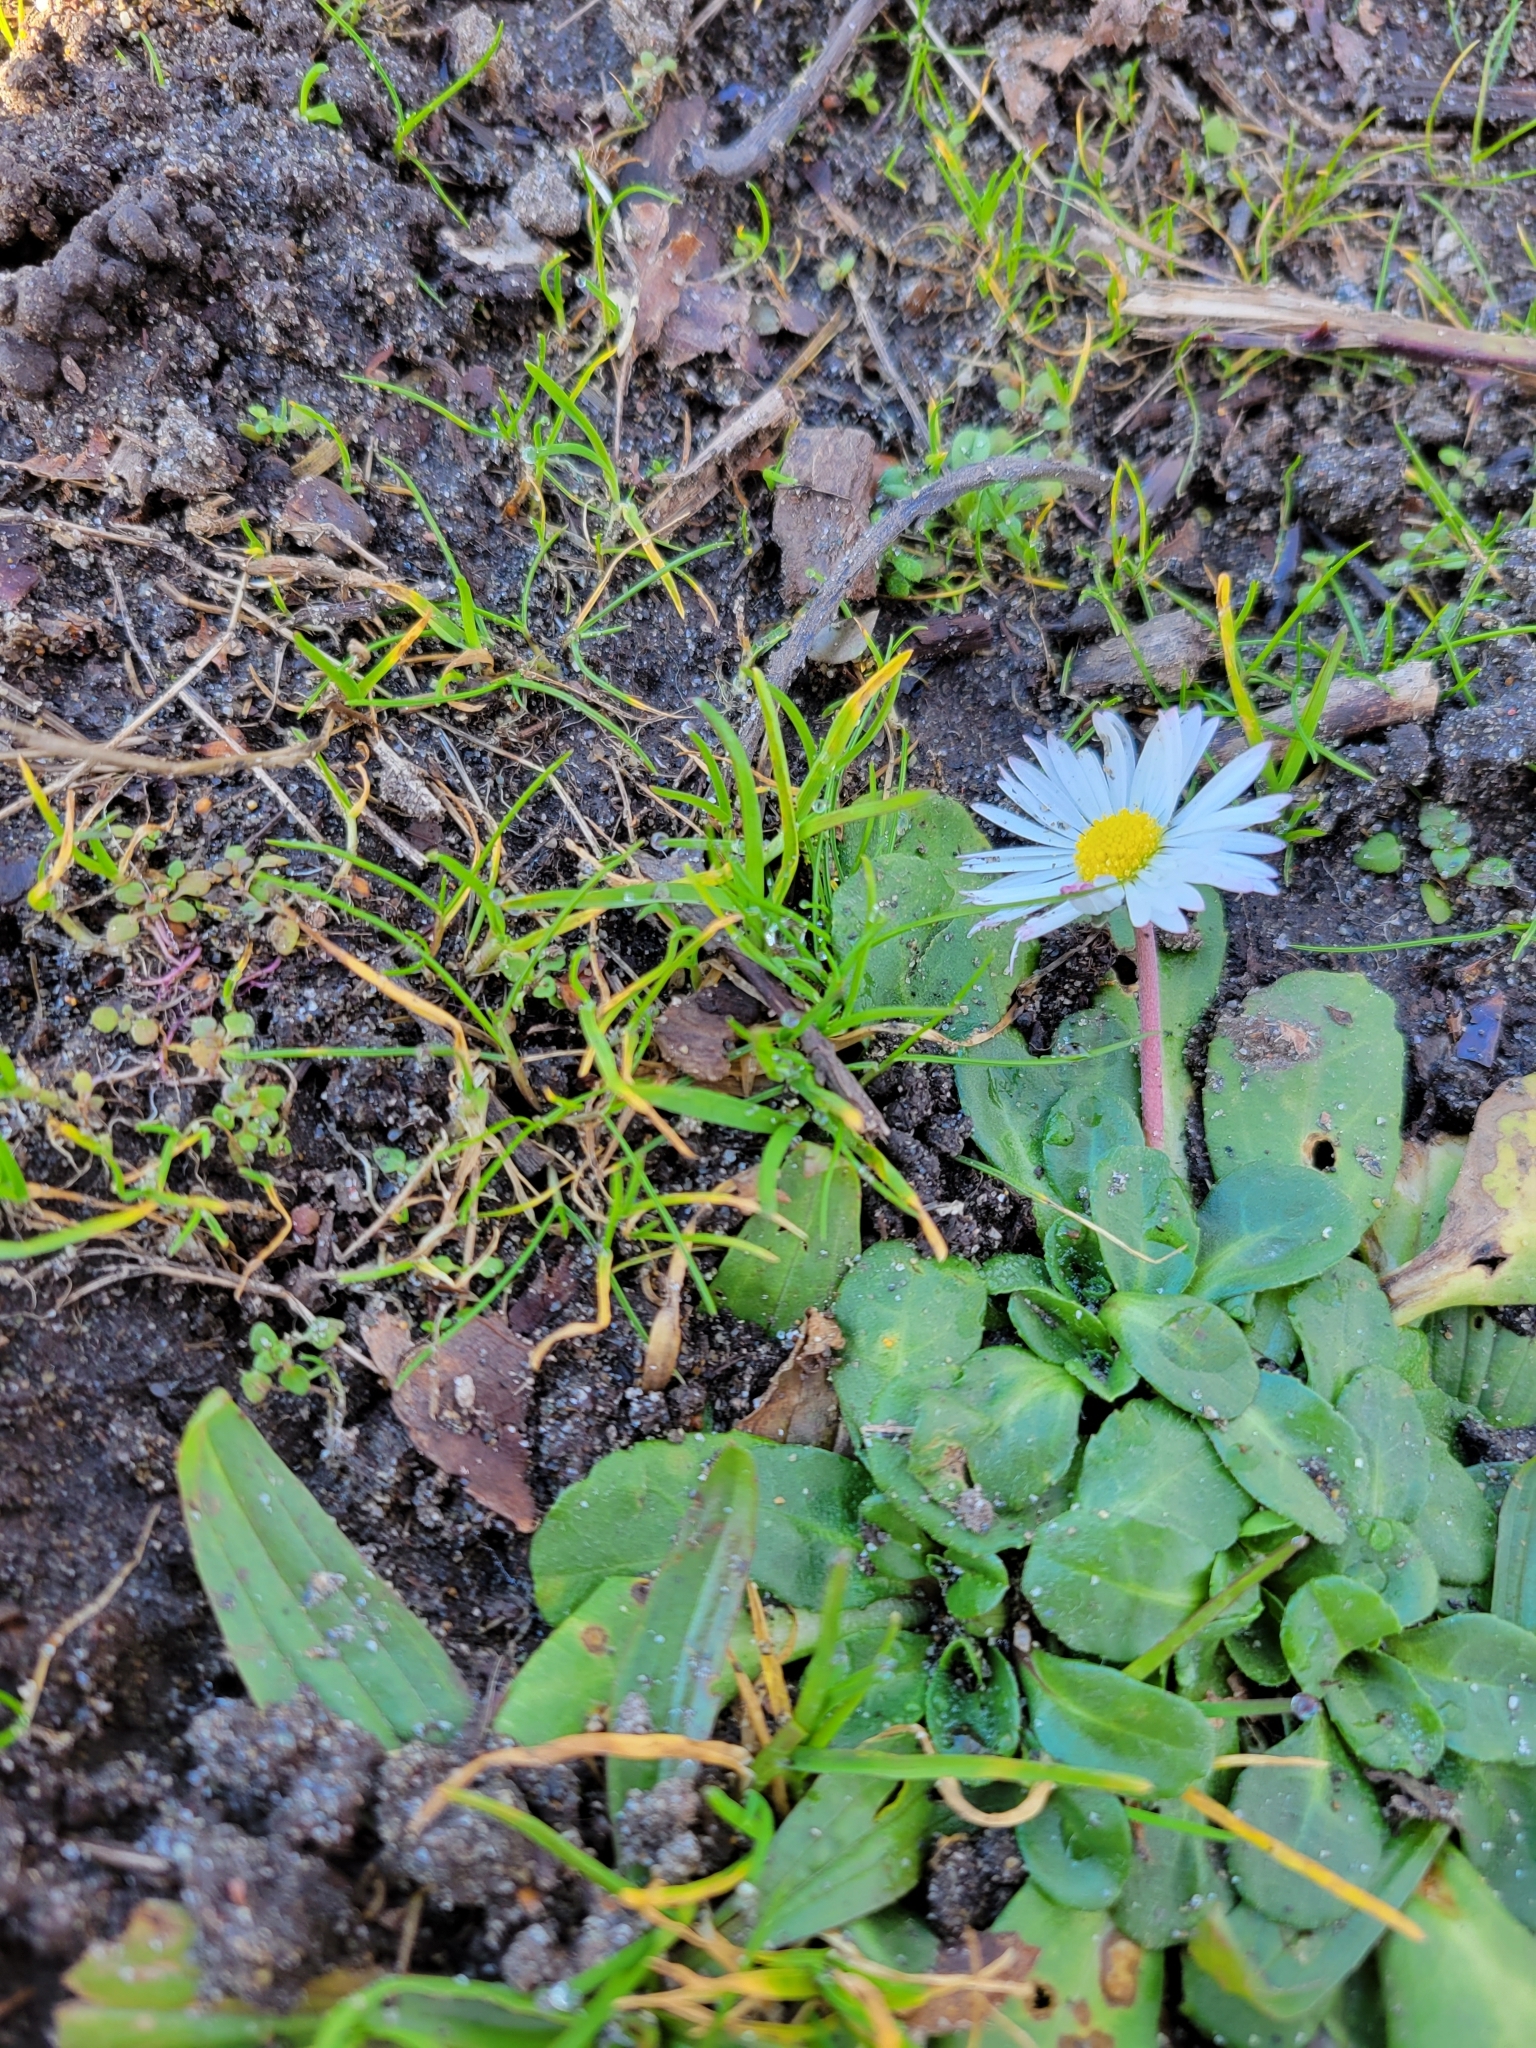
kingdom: Plantae
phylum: Tracheophyta
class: Magnoliopsida
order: Asterales
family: Asteraceae
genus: Bellis
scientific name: Bellis perennis
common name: Lawndaisy
